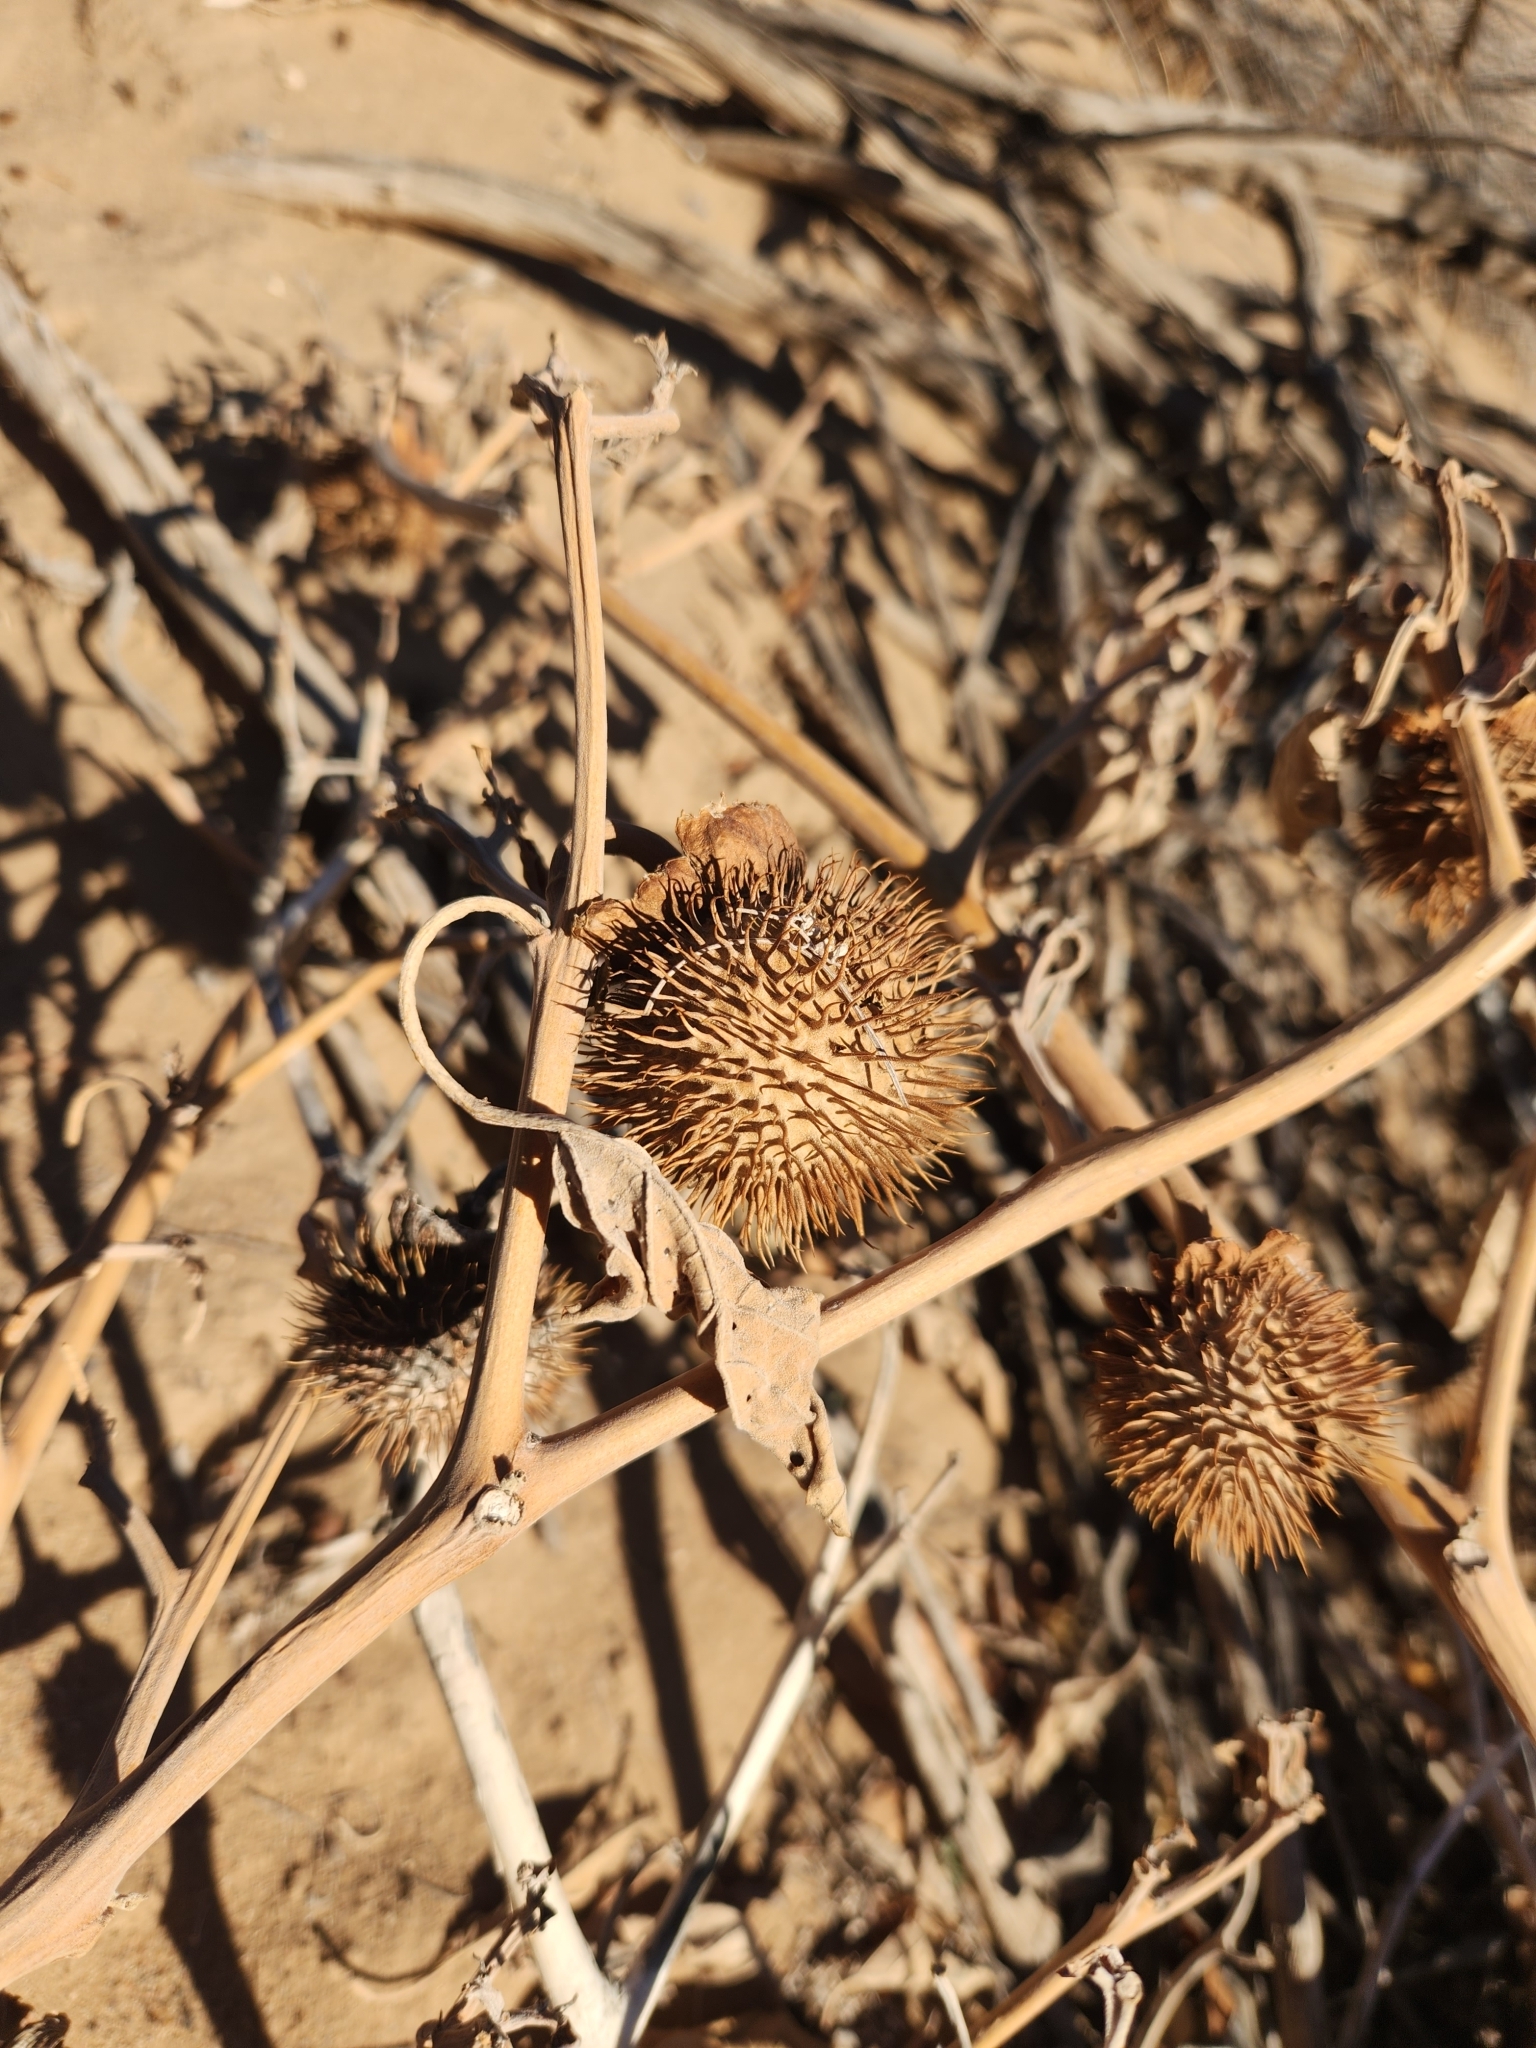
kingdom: Plantae
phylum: Tracheophyta
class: Magnoliopsida
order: Solanales
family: Solanaceae
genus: Datura
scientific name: Datura wrightii
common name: Sacred thorn-apple
